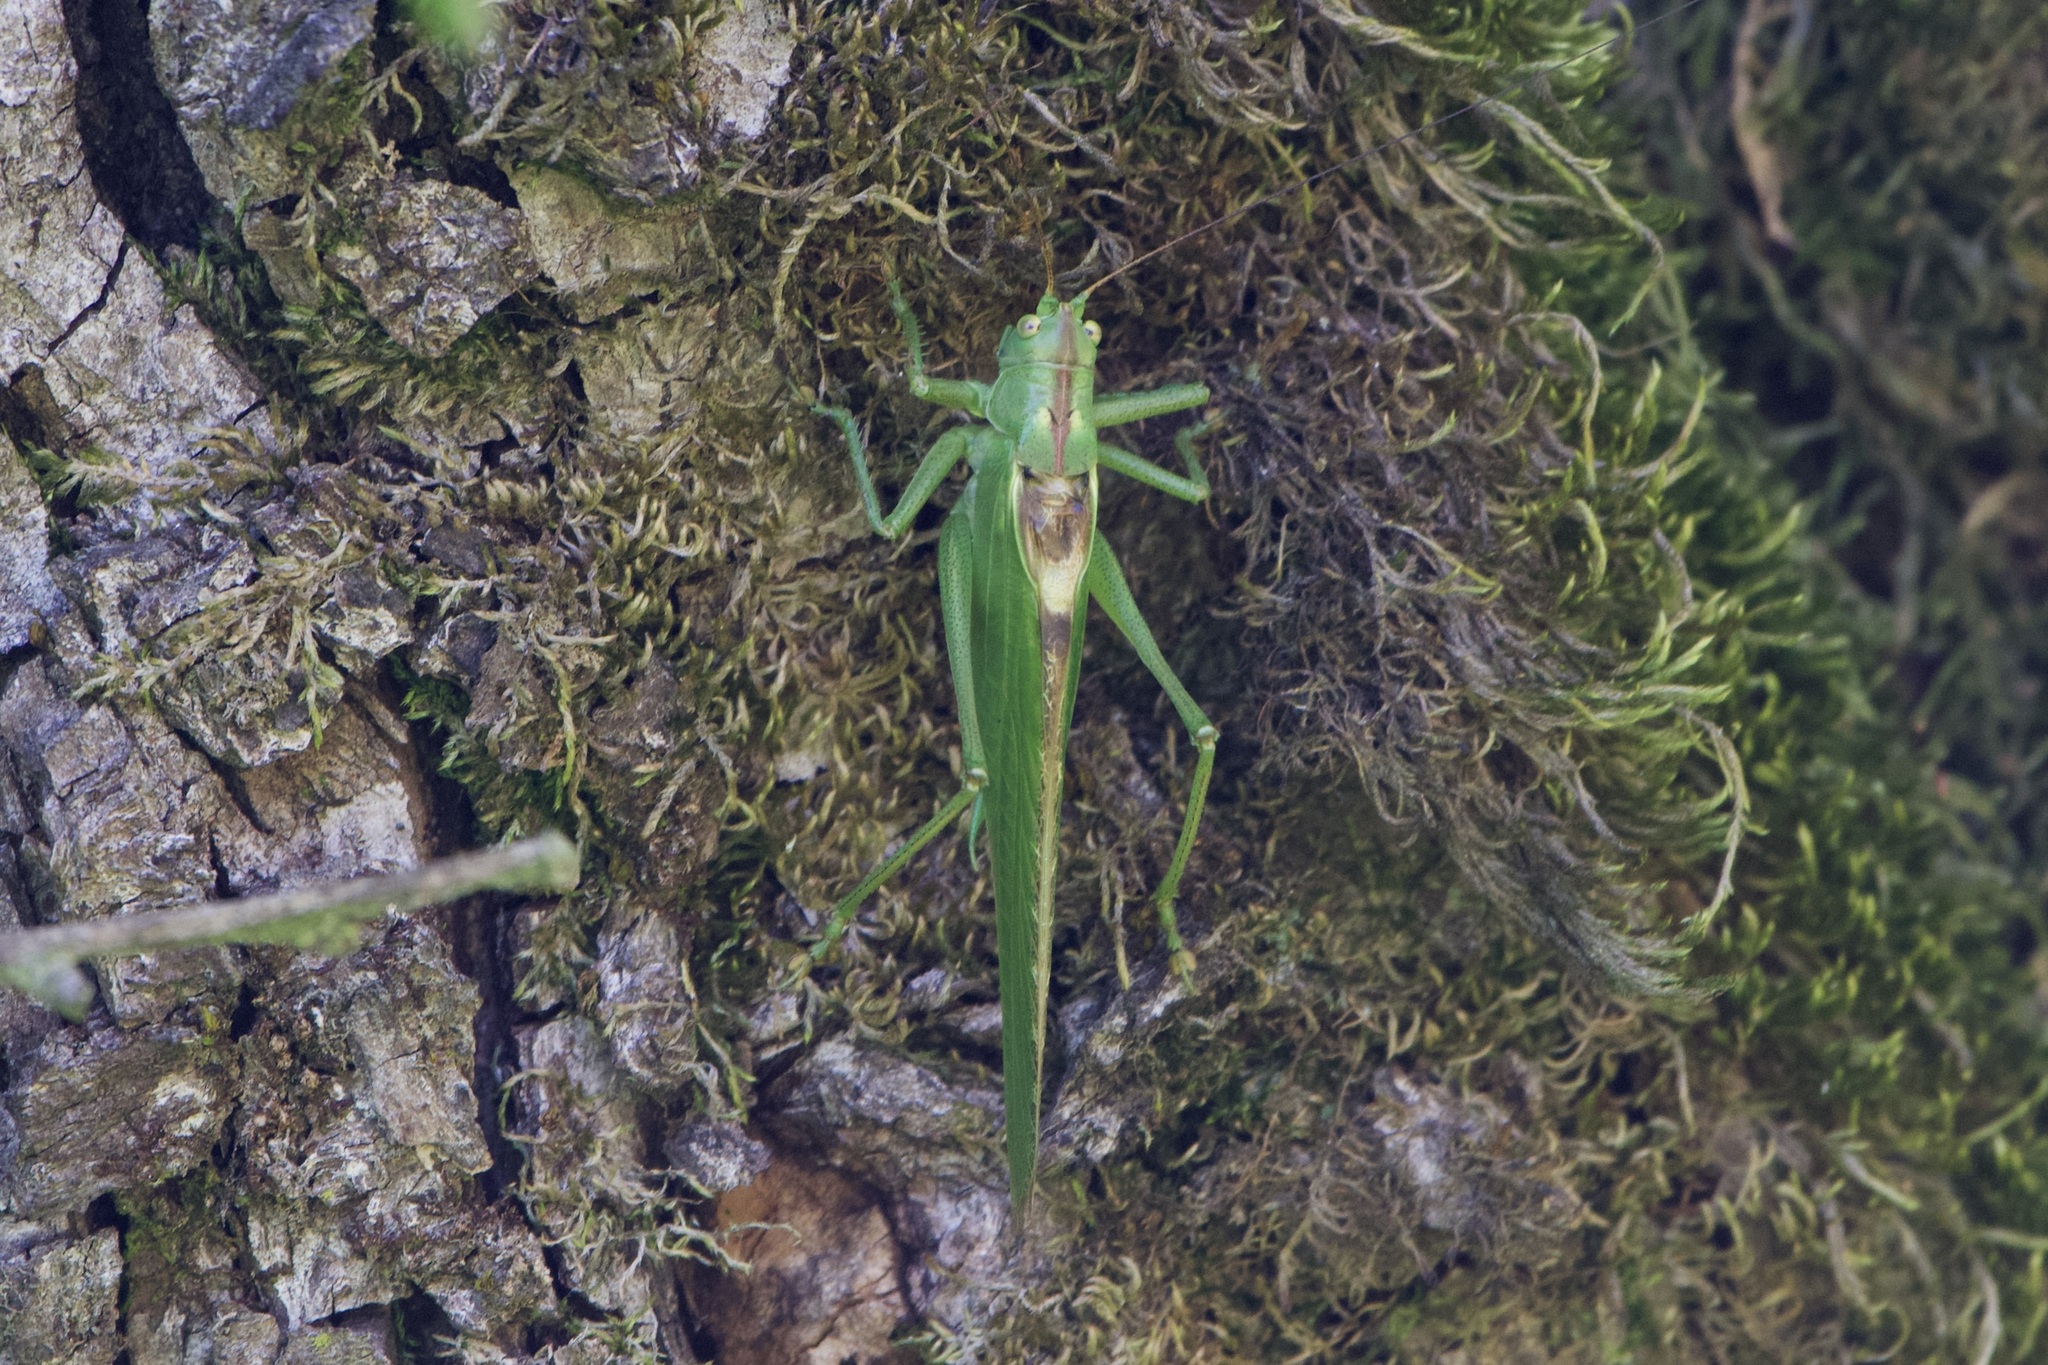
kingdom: Animalia
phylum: Arthropoda
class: Insecta
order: Orthoptera
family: Tettigoniidae
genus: Tettigonia
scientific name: Tettigonia viridissima
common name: Great green bush-cricket
